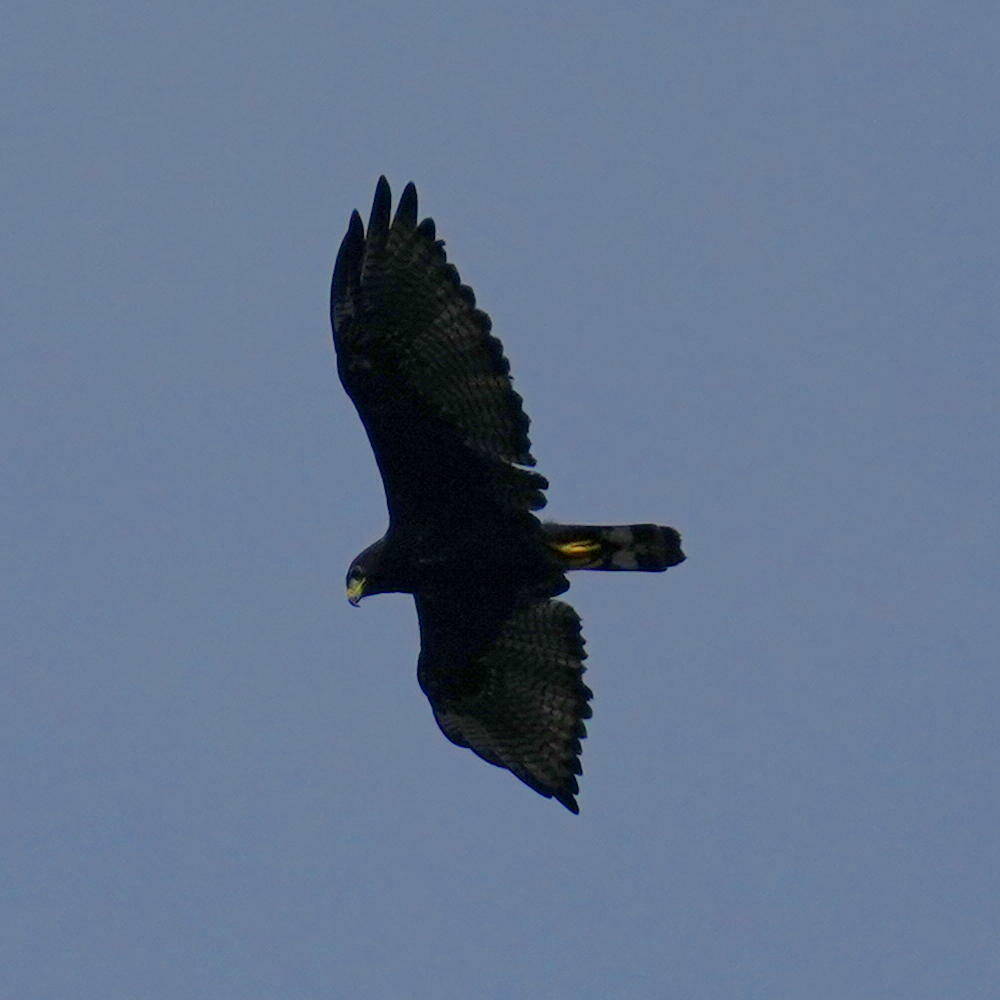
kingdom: Animalia
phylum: Chordata
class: Aves
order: Accipitriformes
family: Accipitridae
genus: Buteo
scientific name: Buteo albonotatus
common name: Zone-tailed hawk
